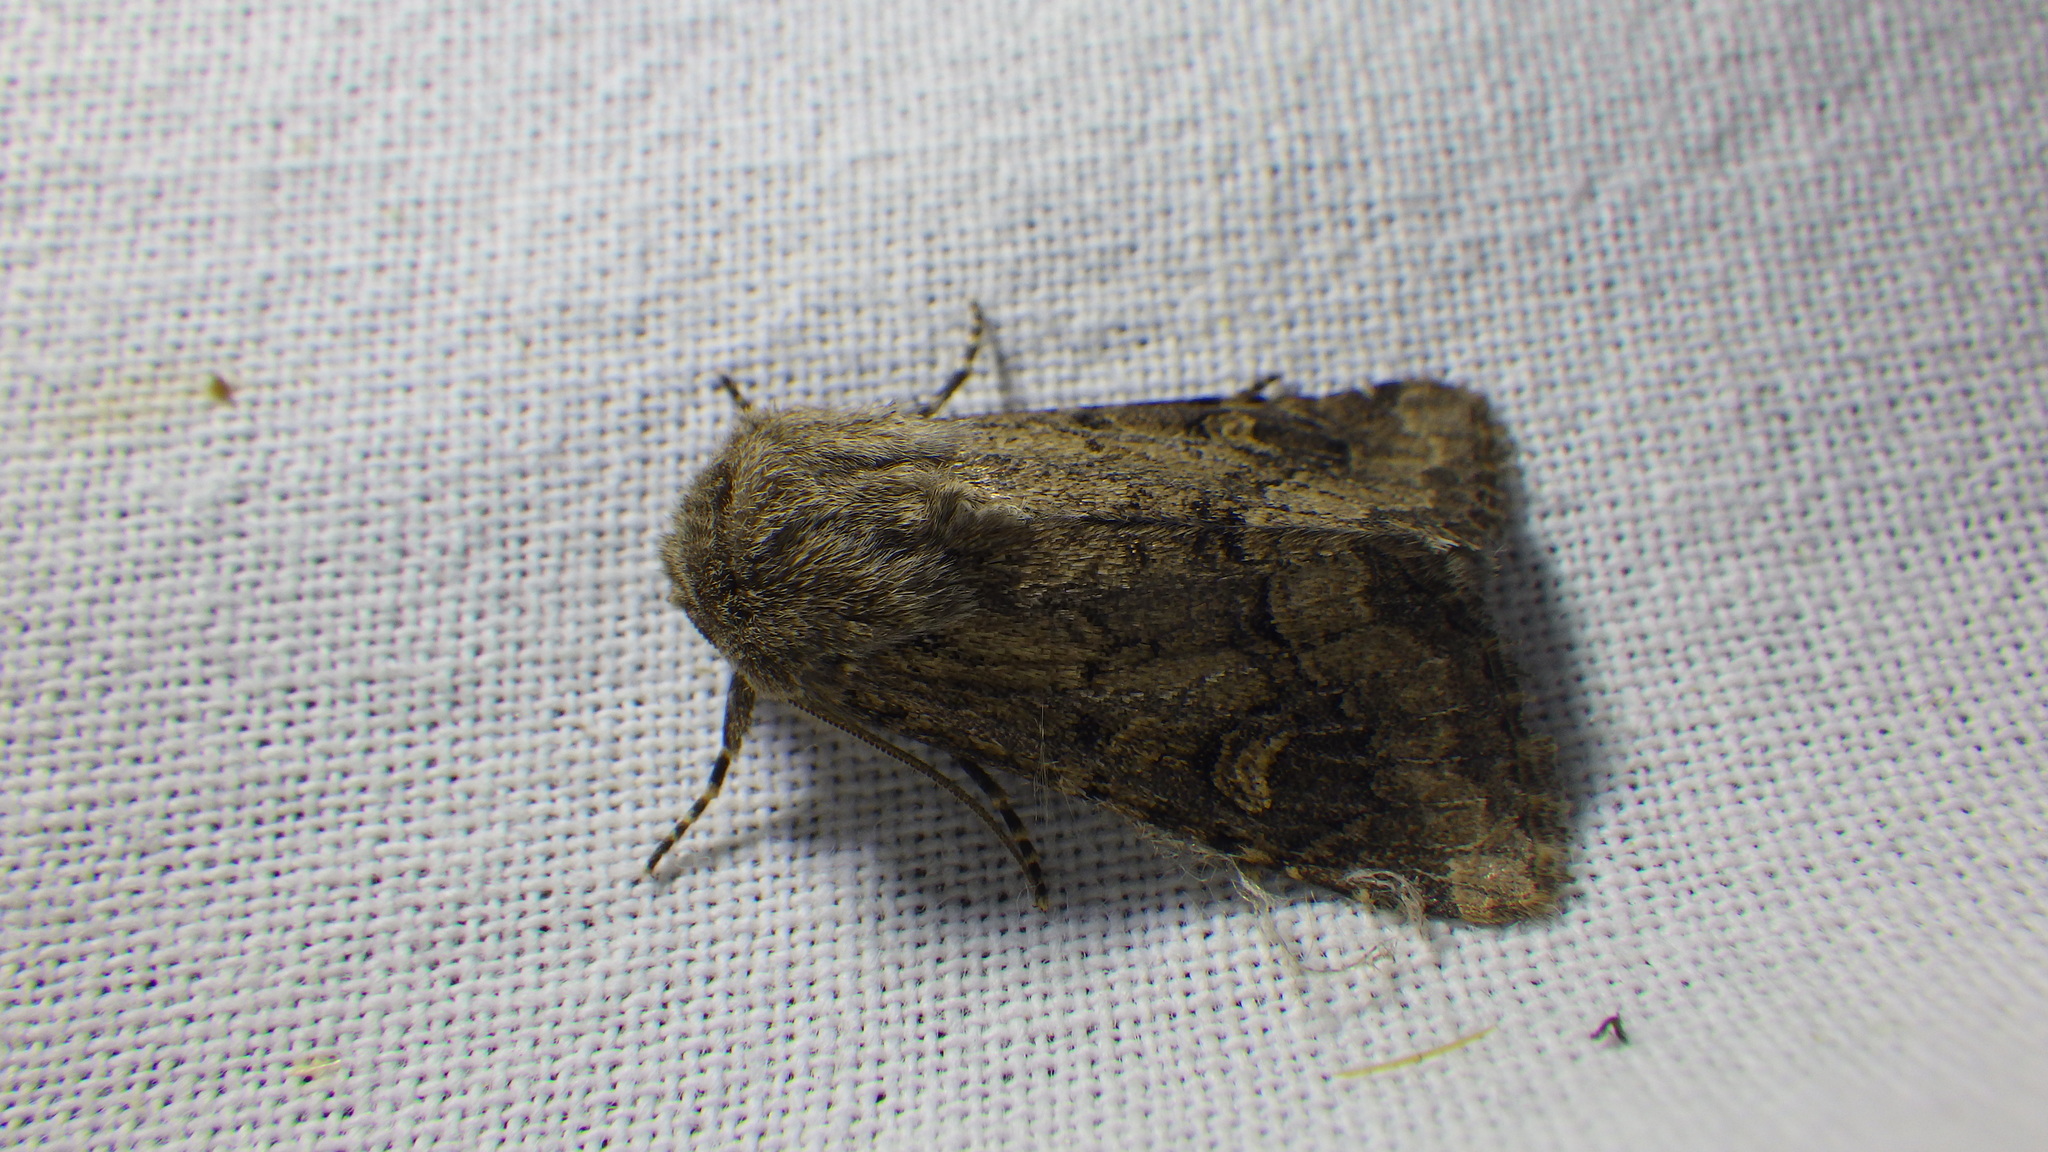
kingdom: Animalia
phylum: Arthropoda
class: Insecta
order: Lepidoptera
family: Noctuidae
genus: Luperina
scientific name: Luperina testacea
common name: Flounced rustic
